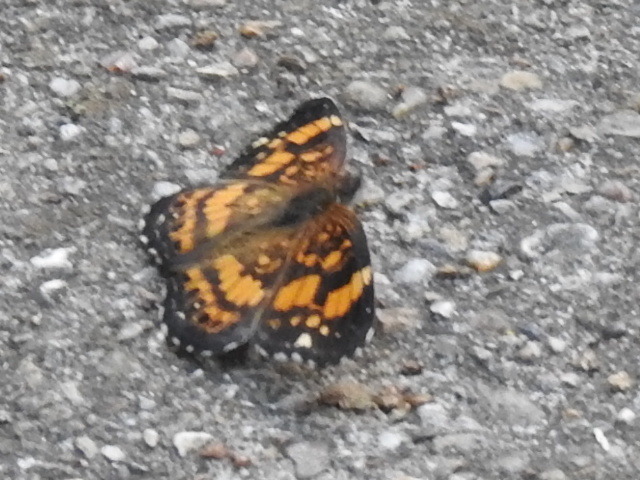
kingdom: Animalia
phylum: Arthropoda
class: Insecta
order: Lepidoptera
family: Nymphalidae
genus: Chlosyne
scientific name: Chlosyne nycteis
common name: Silvery checkerspot
